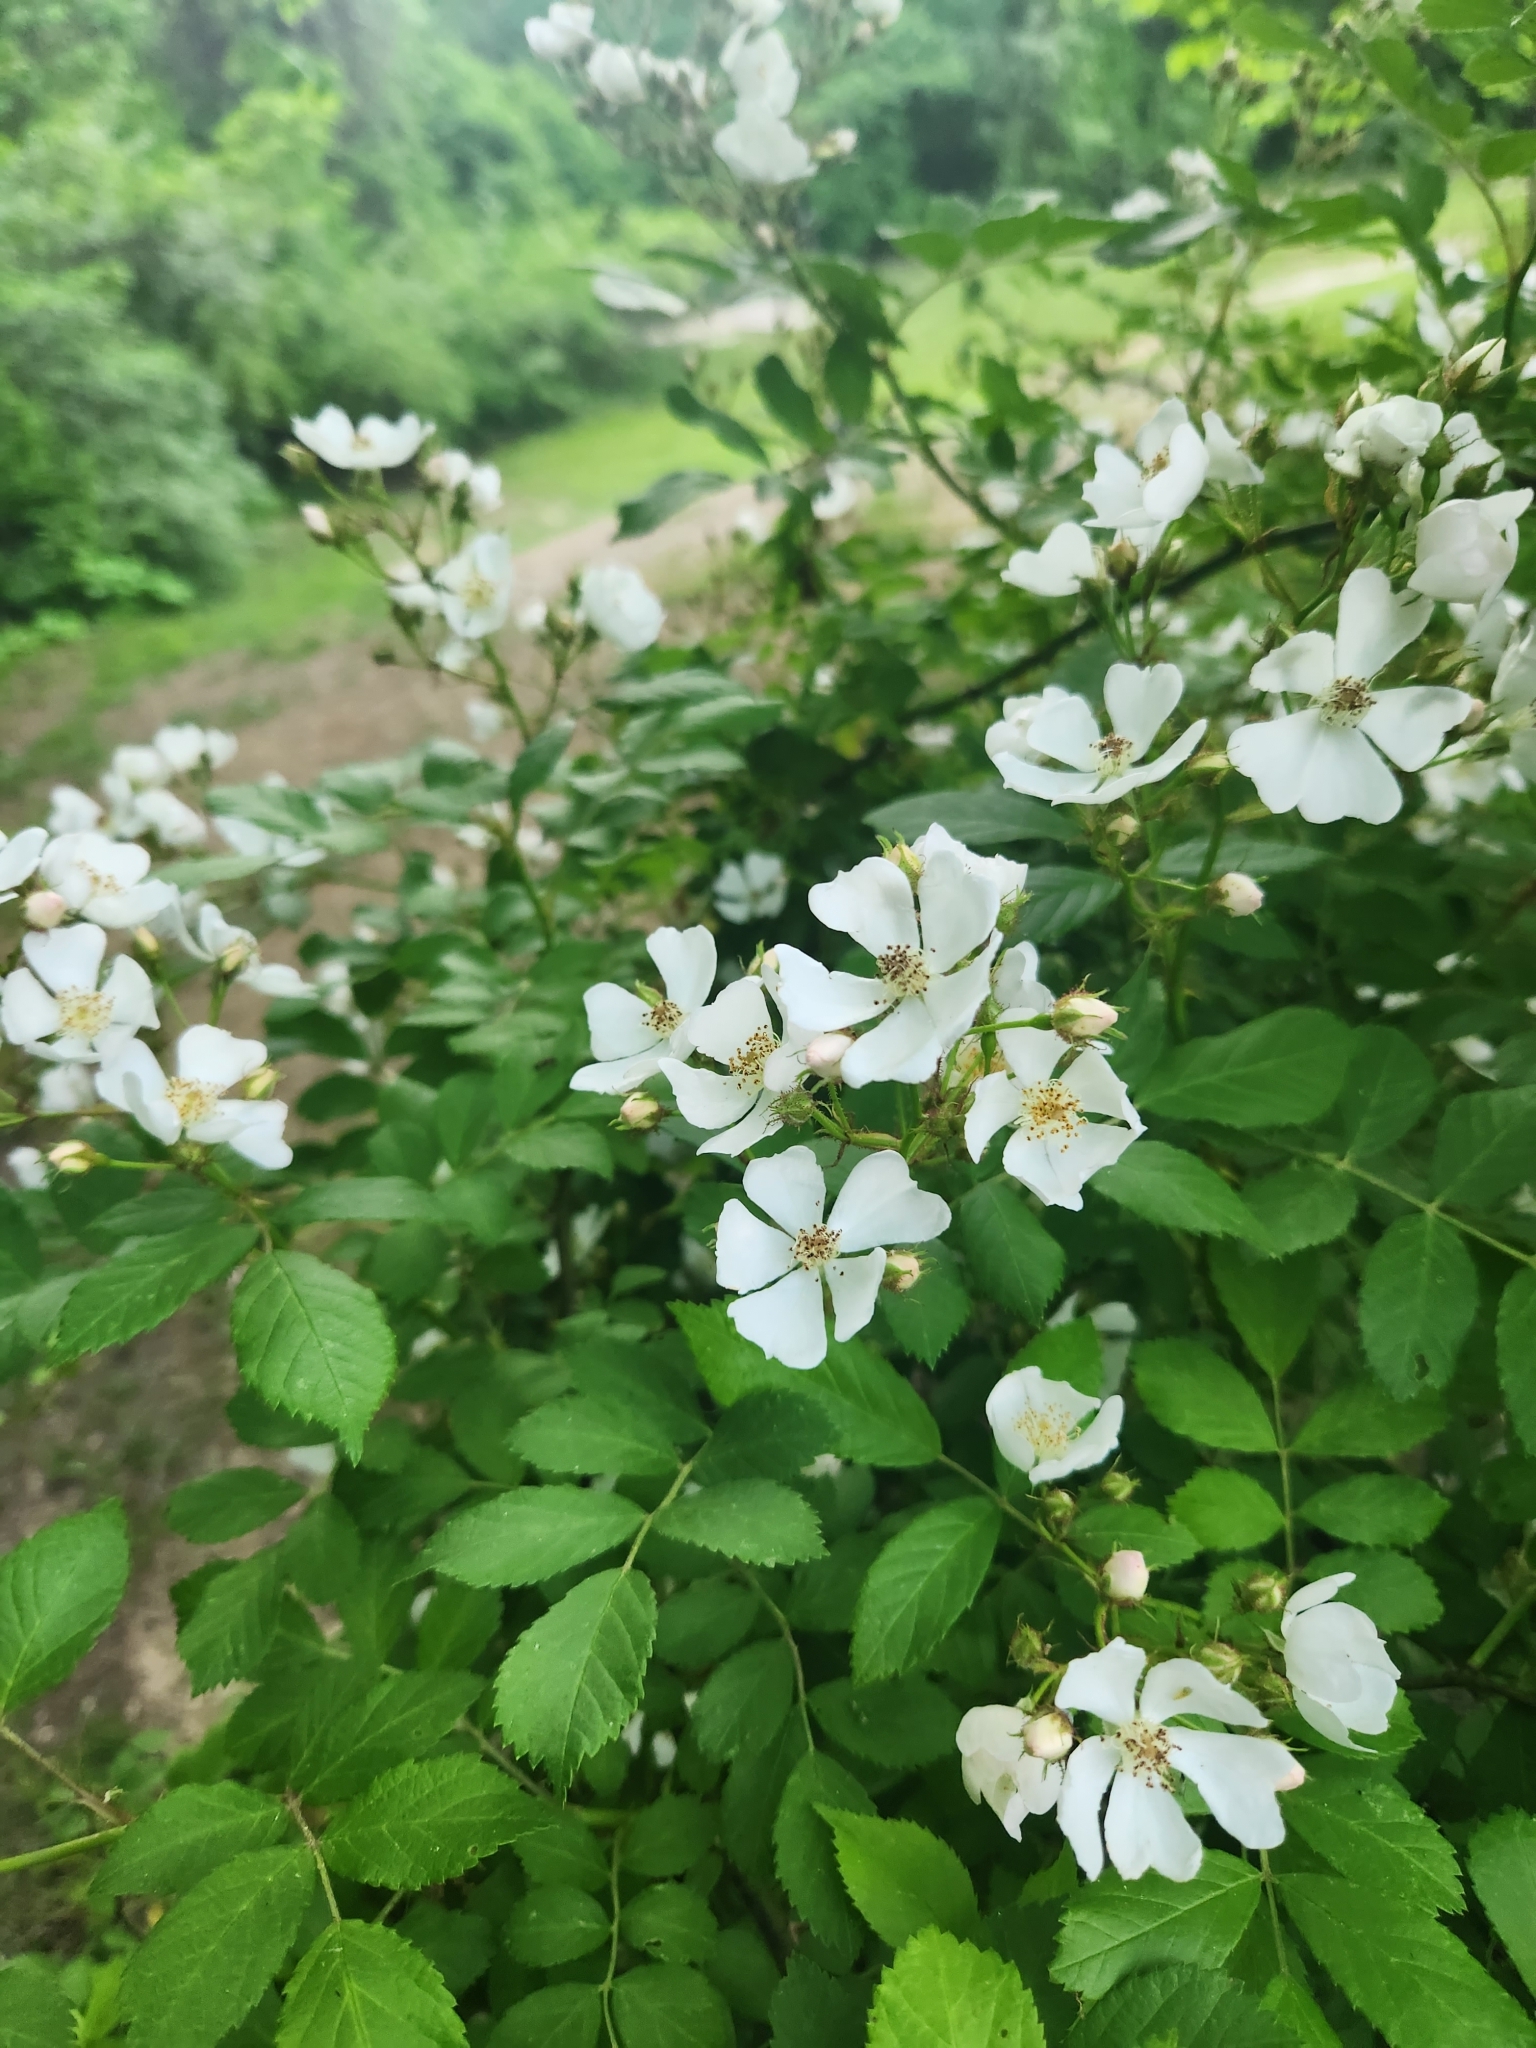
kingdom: Plantae
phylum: Tracheophyta
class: Magnoliopsida
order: Rosales
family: Rosaceae
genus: Rosa
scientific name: Rosa multiflora
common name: Multiflora rose
